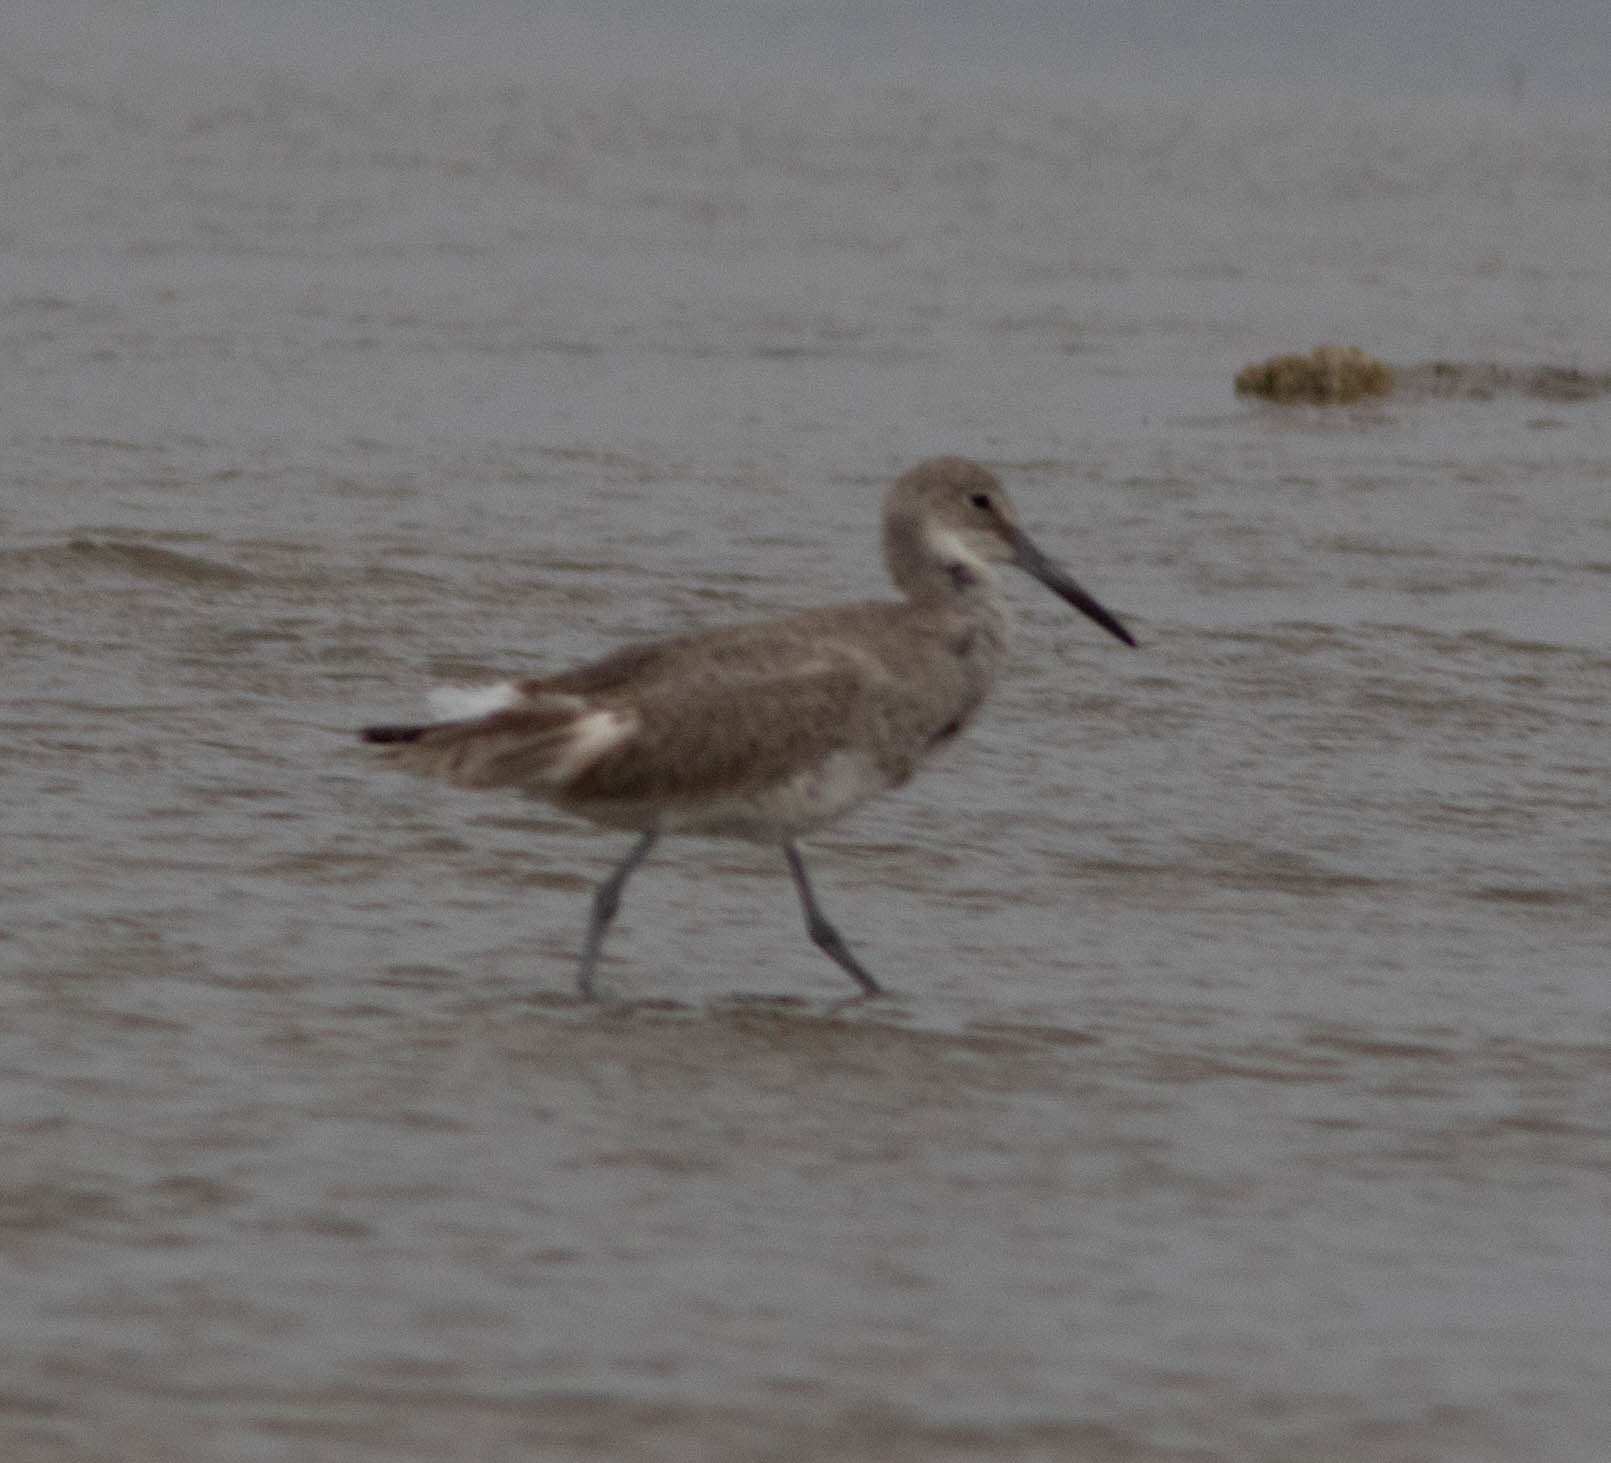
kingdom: Animalia
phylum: Chordata
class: Aves
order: Charadriiformes
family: Scolopacidae
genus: Tringa
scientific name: Tringa semipalmata
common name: Willet
